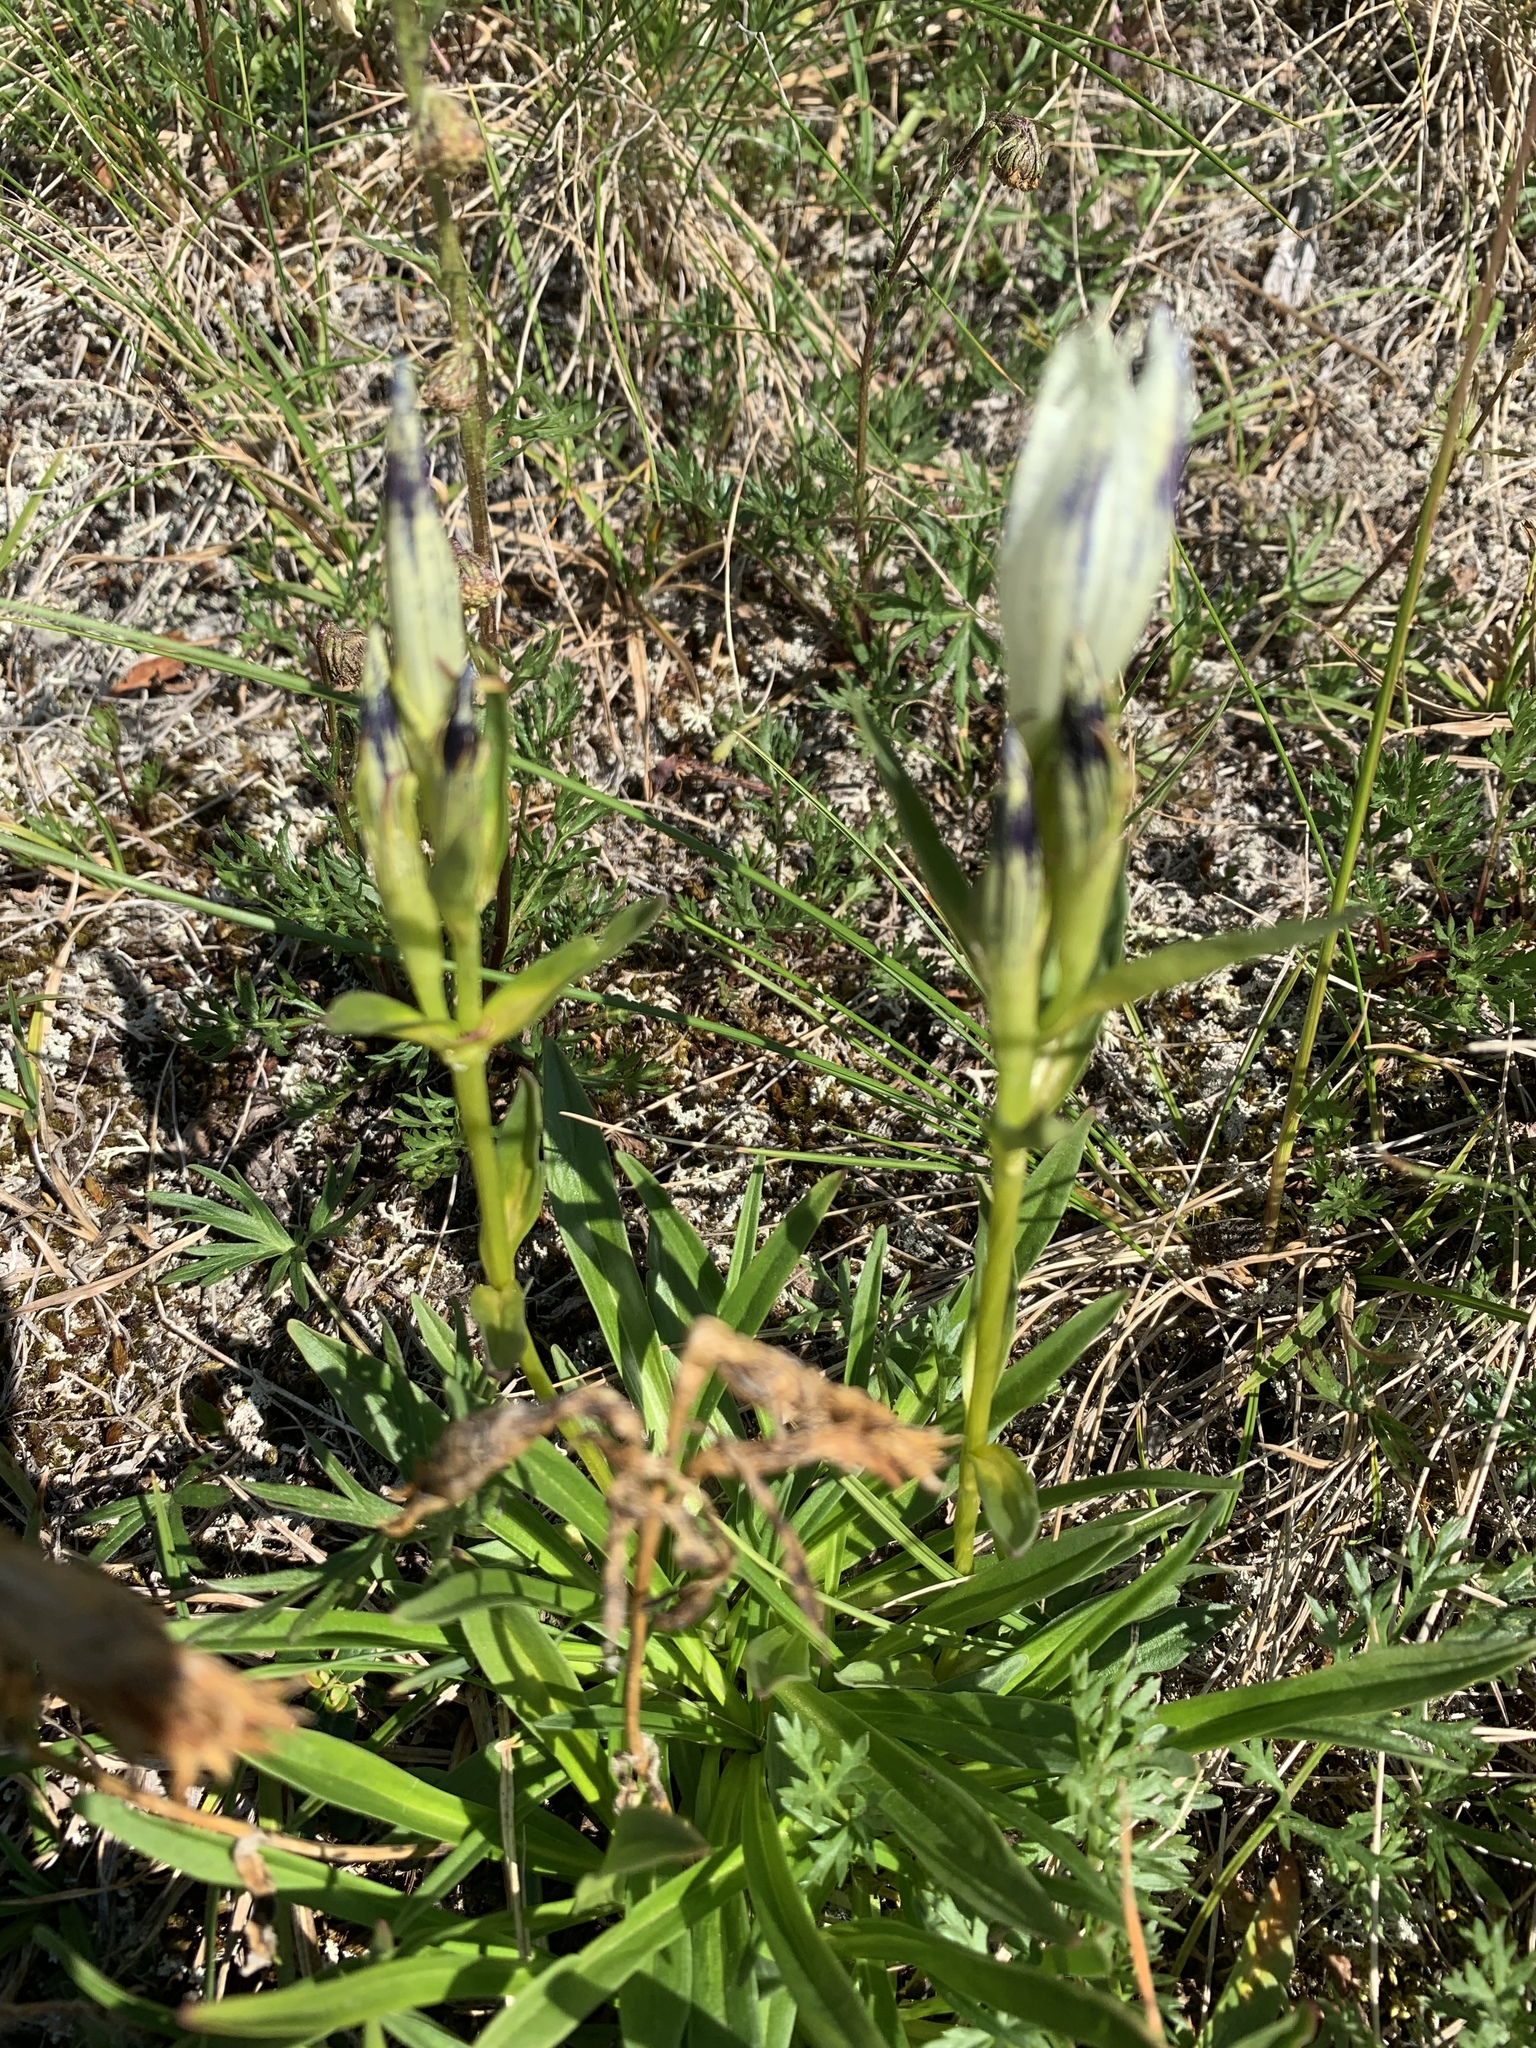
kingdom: Plantae
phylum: Tracheophyta
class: Magnoliopsida
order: Gentianales
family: Gentianaceae
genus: Gentiana
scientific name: Gentiana algida
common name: Arctic gentian
